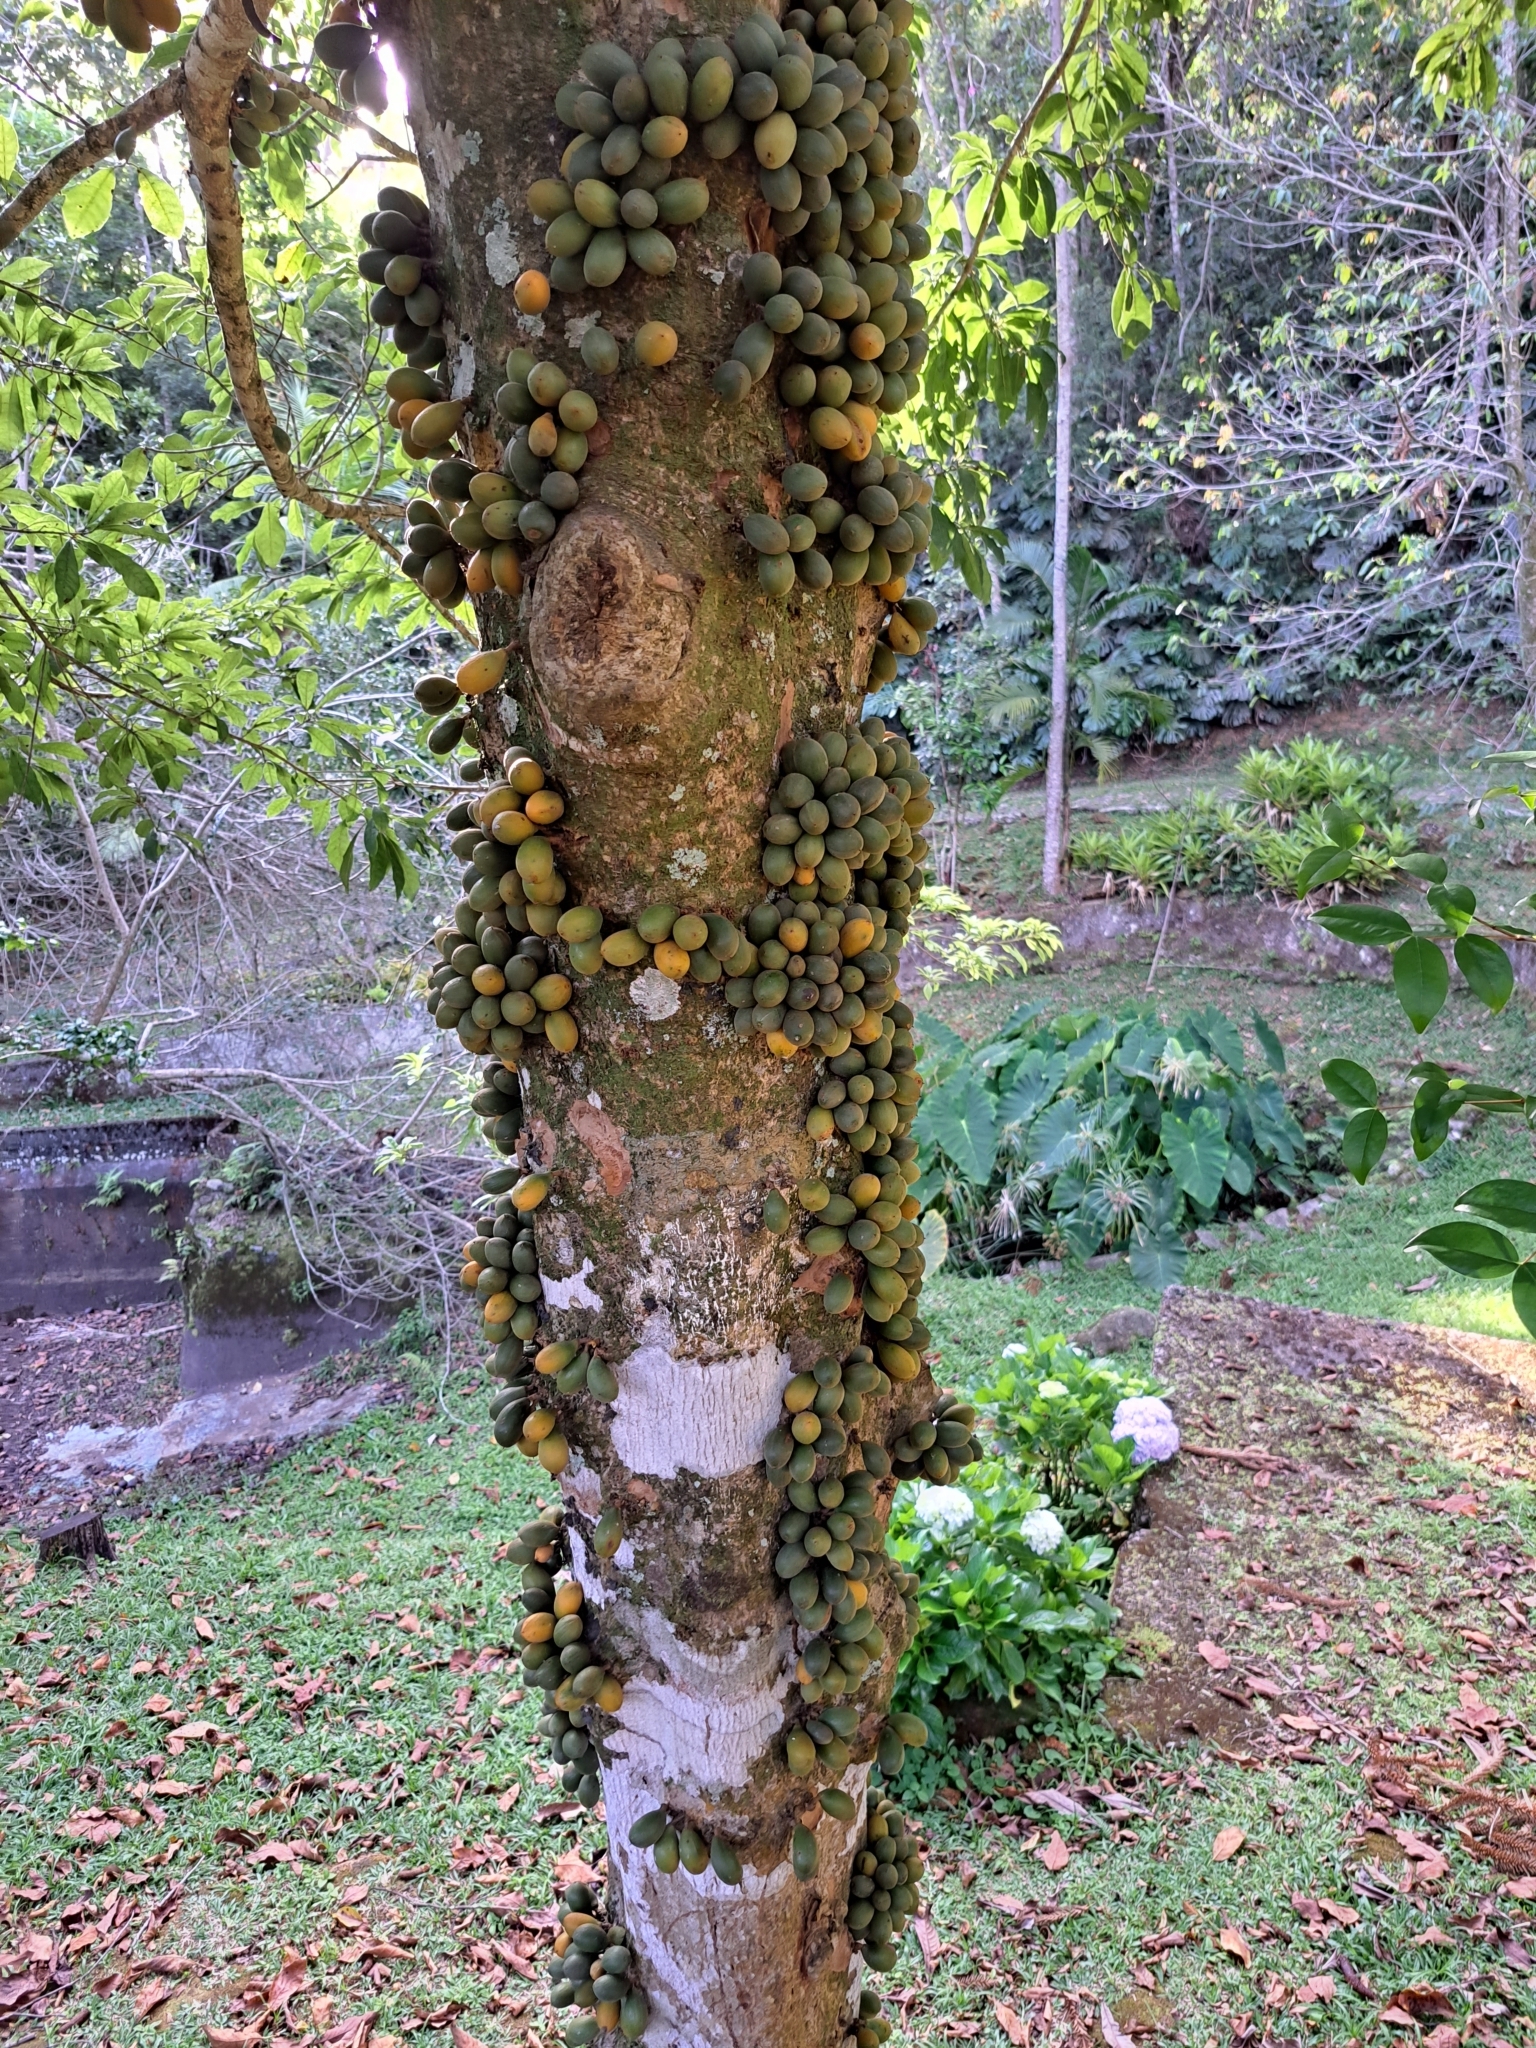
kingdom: Plantae
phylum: Tracheophyta
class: Magnoliopsida
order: Ericales
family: Sapotaceae
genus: Pradosia
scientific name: Pradosia lactescens
